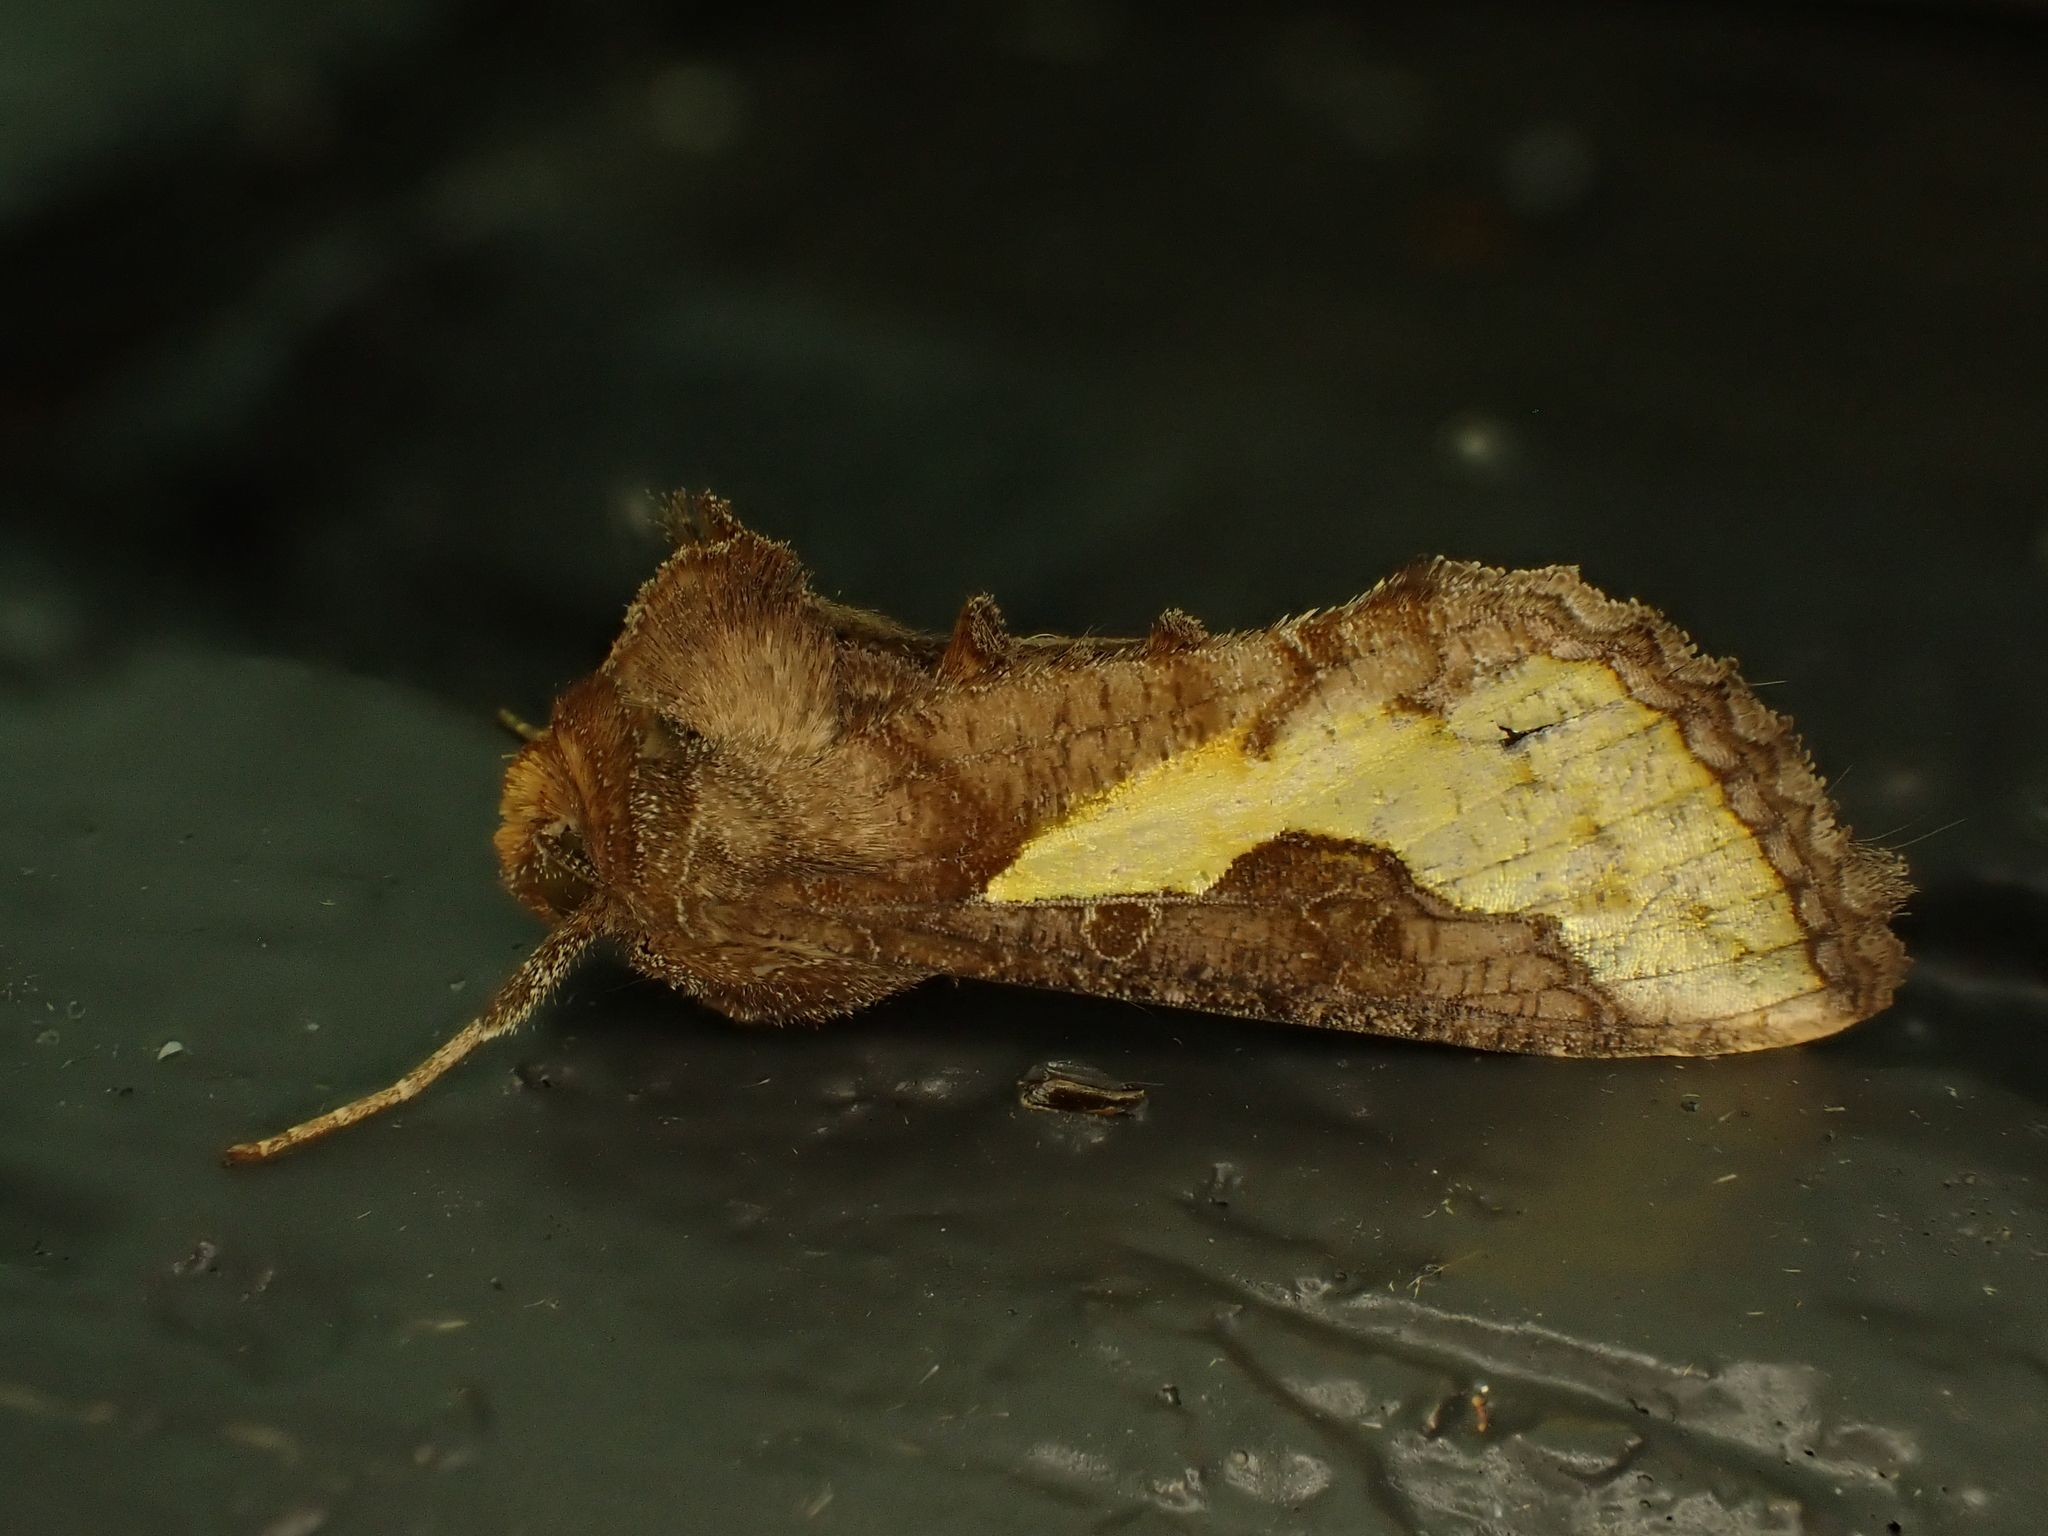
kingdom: Animalia
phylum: Arthropoda
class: Insecta
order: Lepidoptera
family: Noctuidae
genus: Thysanoplusia
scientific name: Thysanoplusia orichalcea
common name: Slender burnished brass, golden plusia
